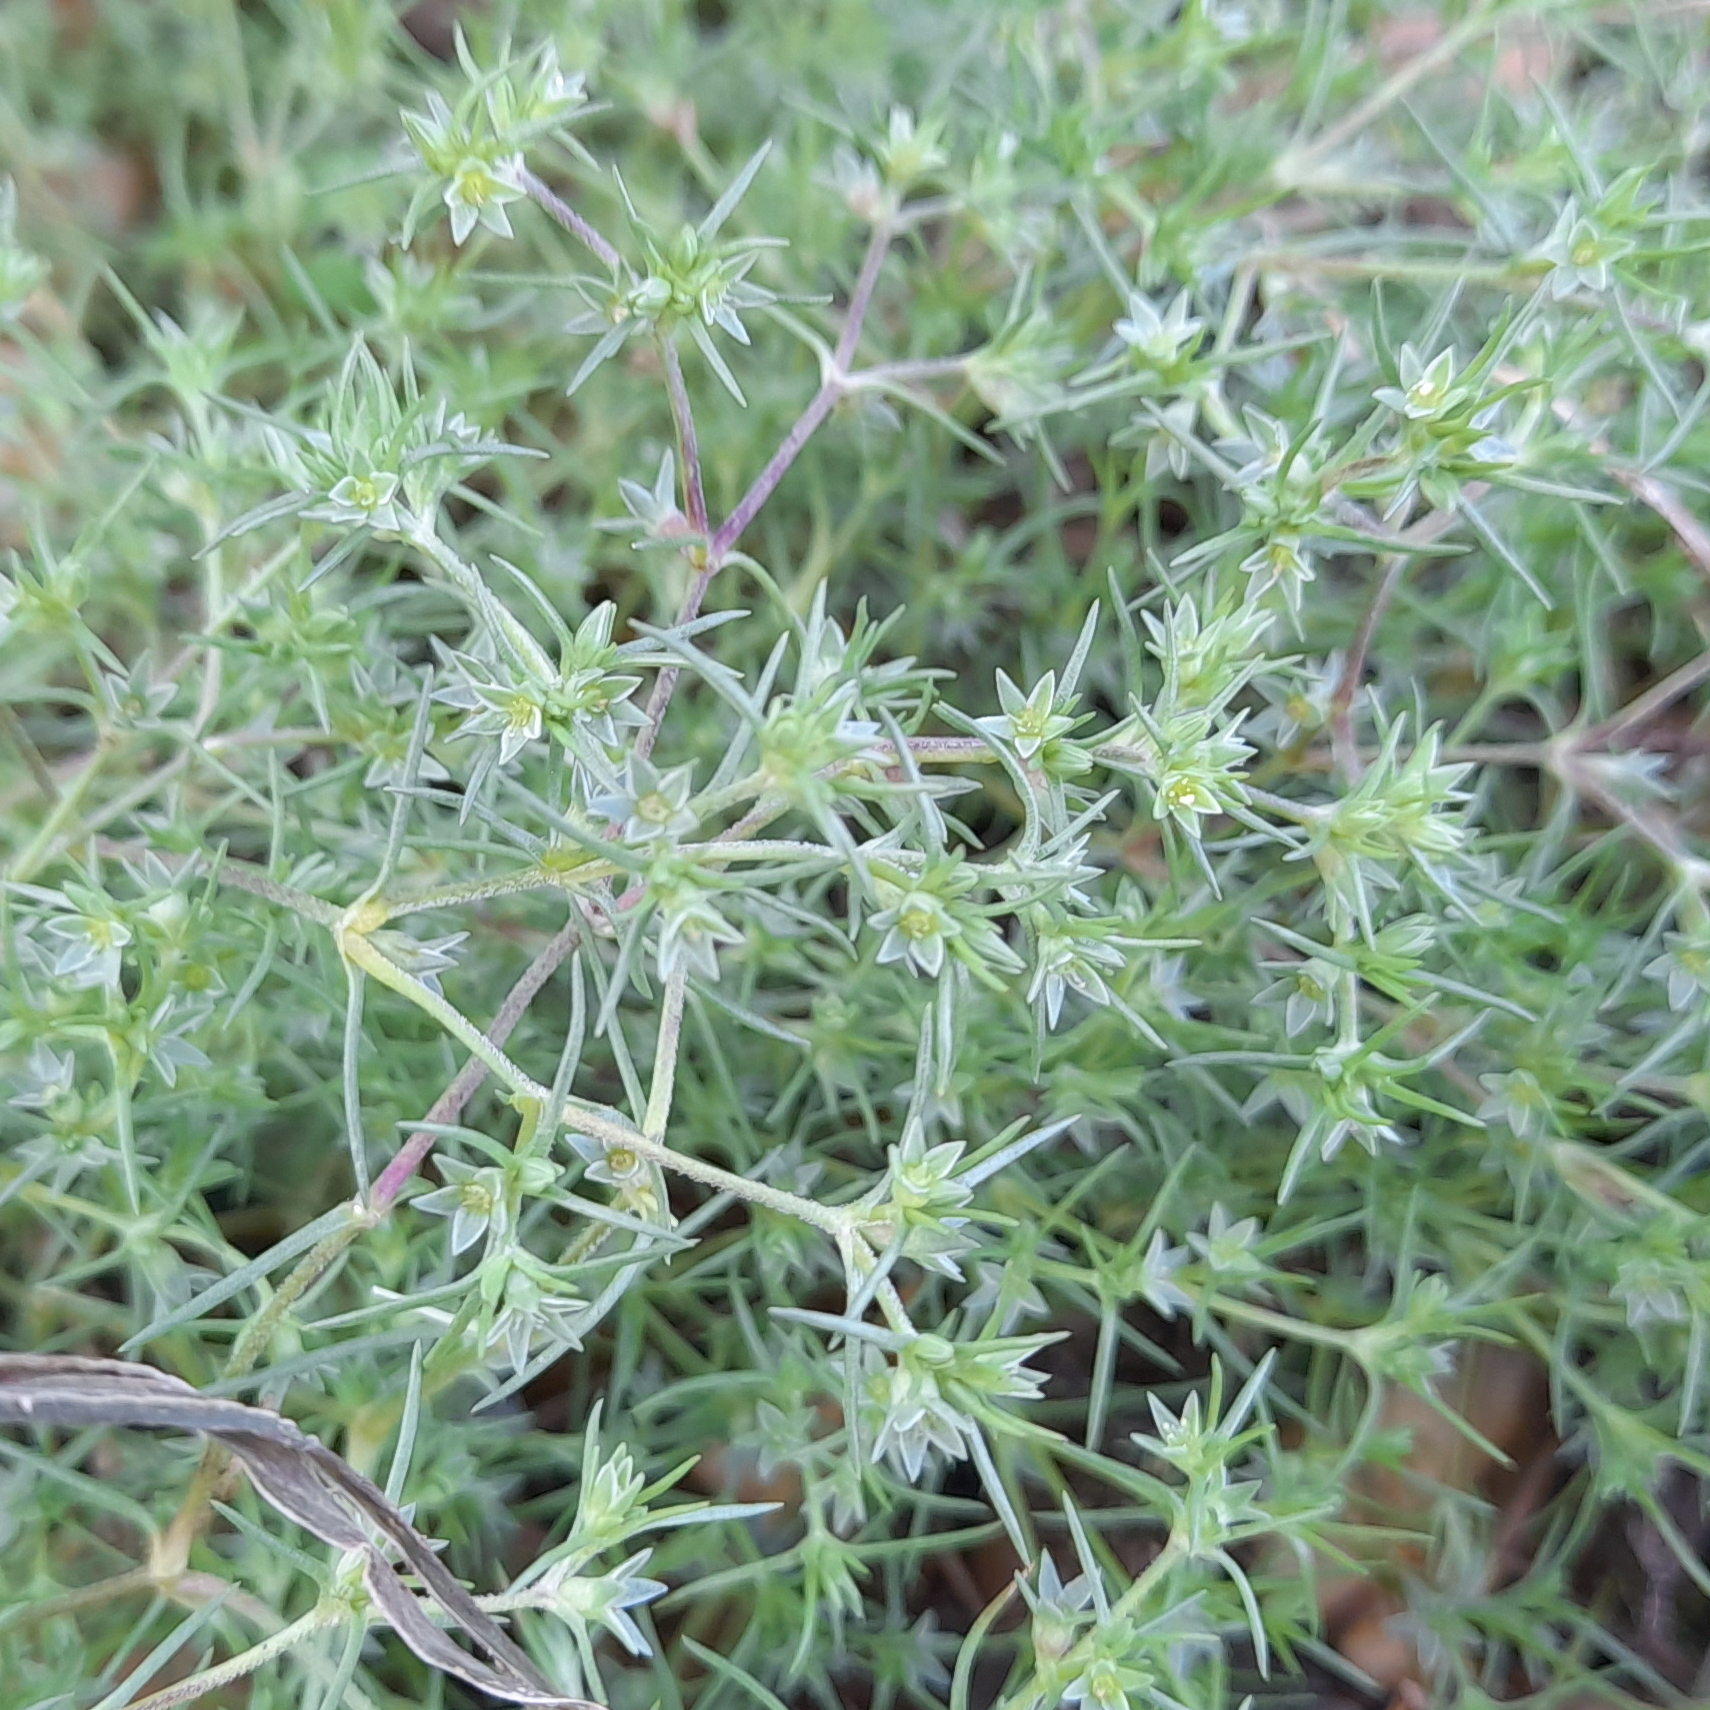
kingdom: Plantae
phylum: Tracheophyta
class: Magnoliopsida
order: Caryophyllales
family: Caryophyllaceae
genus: Scleranthus
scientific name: Scleranthus annuus
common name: Annual knawel
